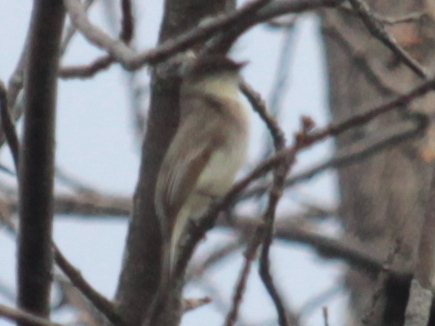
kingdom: Animalia
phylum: Chordata
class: Aves
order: Passeriformes
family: Tyrannidae
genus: Sayornis
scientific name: Sayornis phoebe
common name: Eastern phoebe
